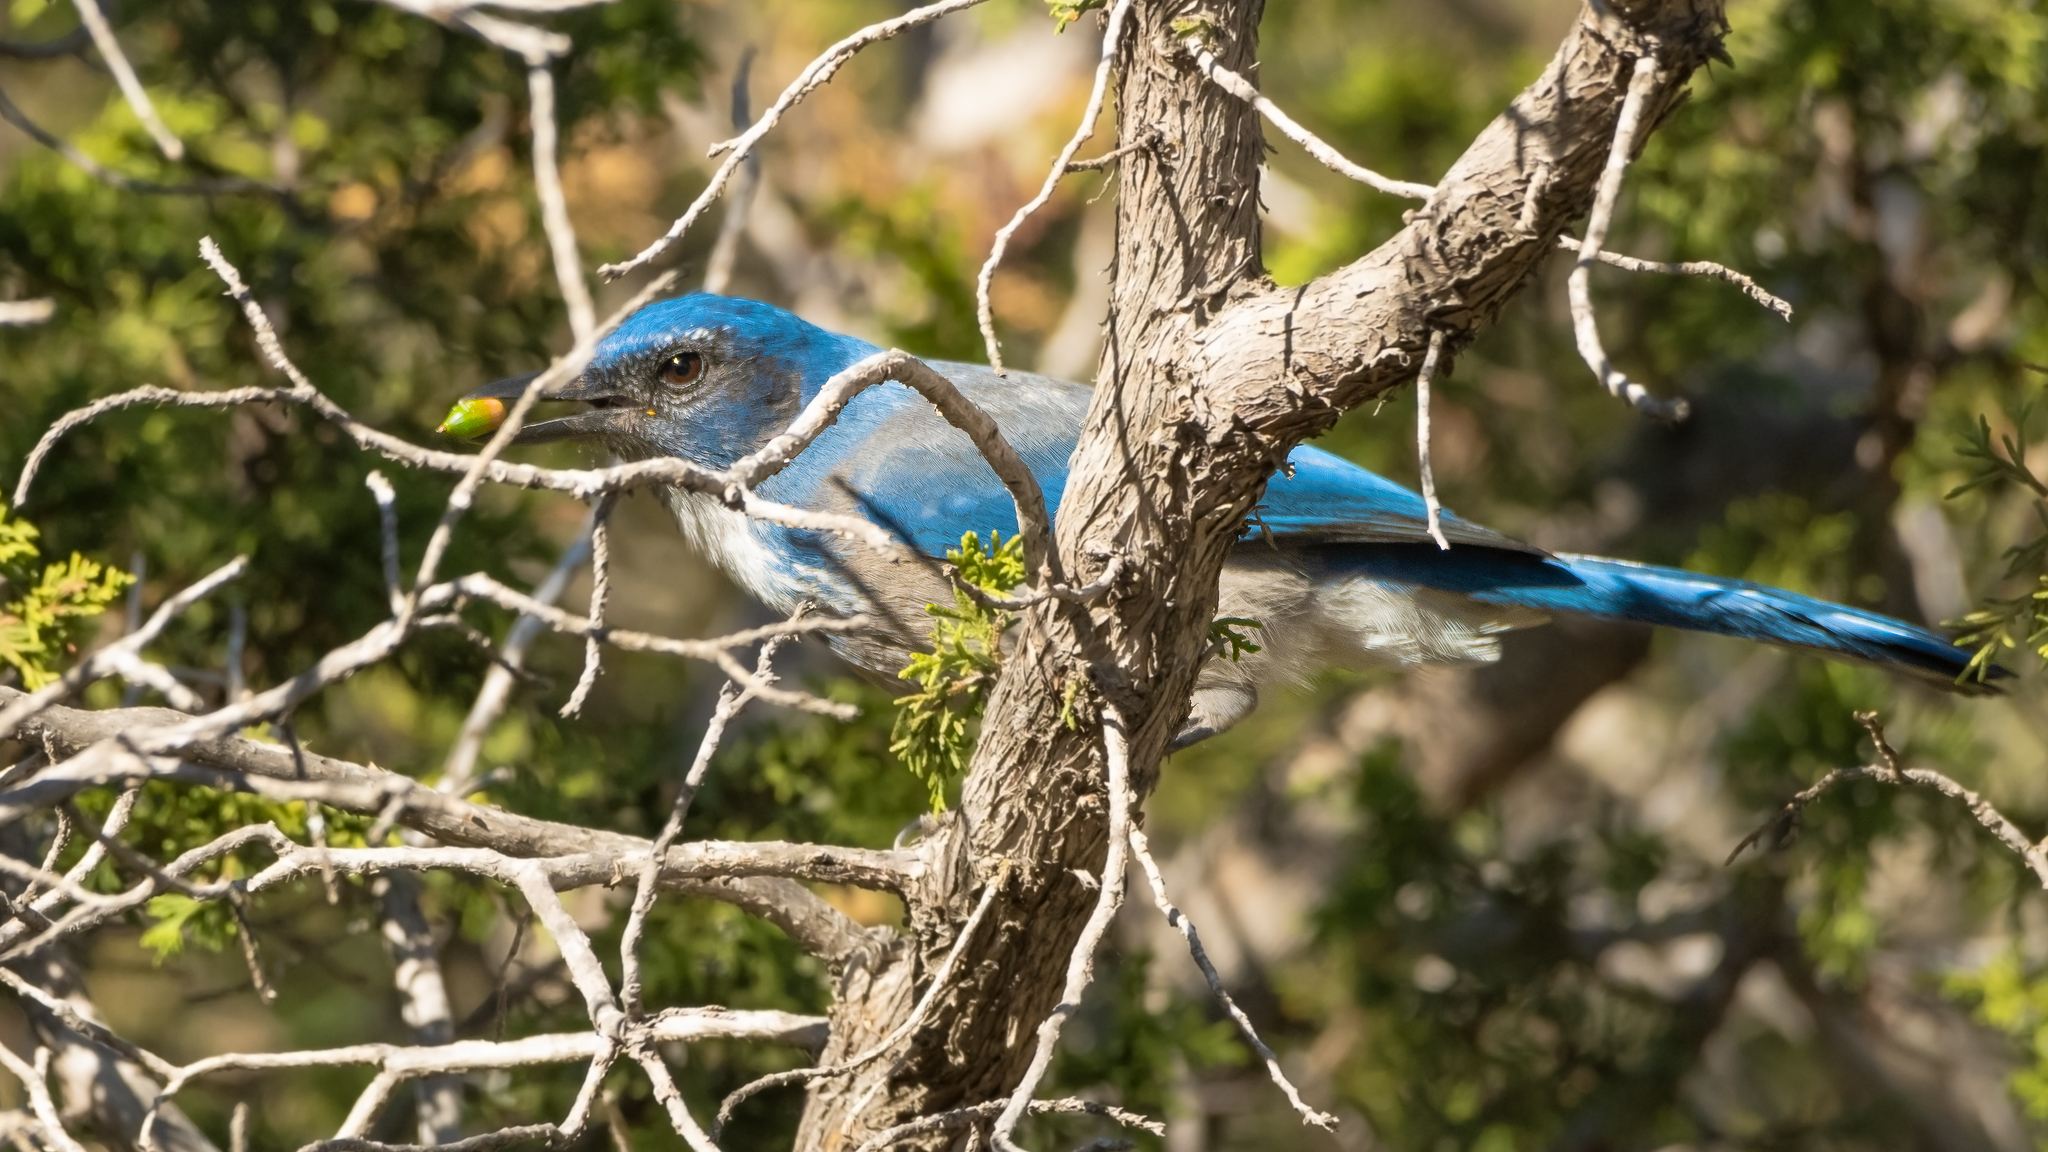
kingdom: Animalia
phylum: Chordata
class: Aves
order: Passeriformes
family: Corvidae
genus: Aphelocoma
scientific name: Aphelocoma wollweberi
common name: Mexican jay
